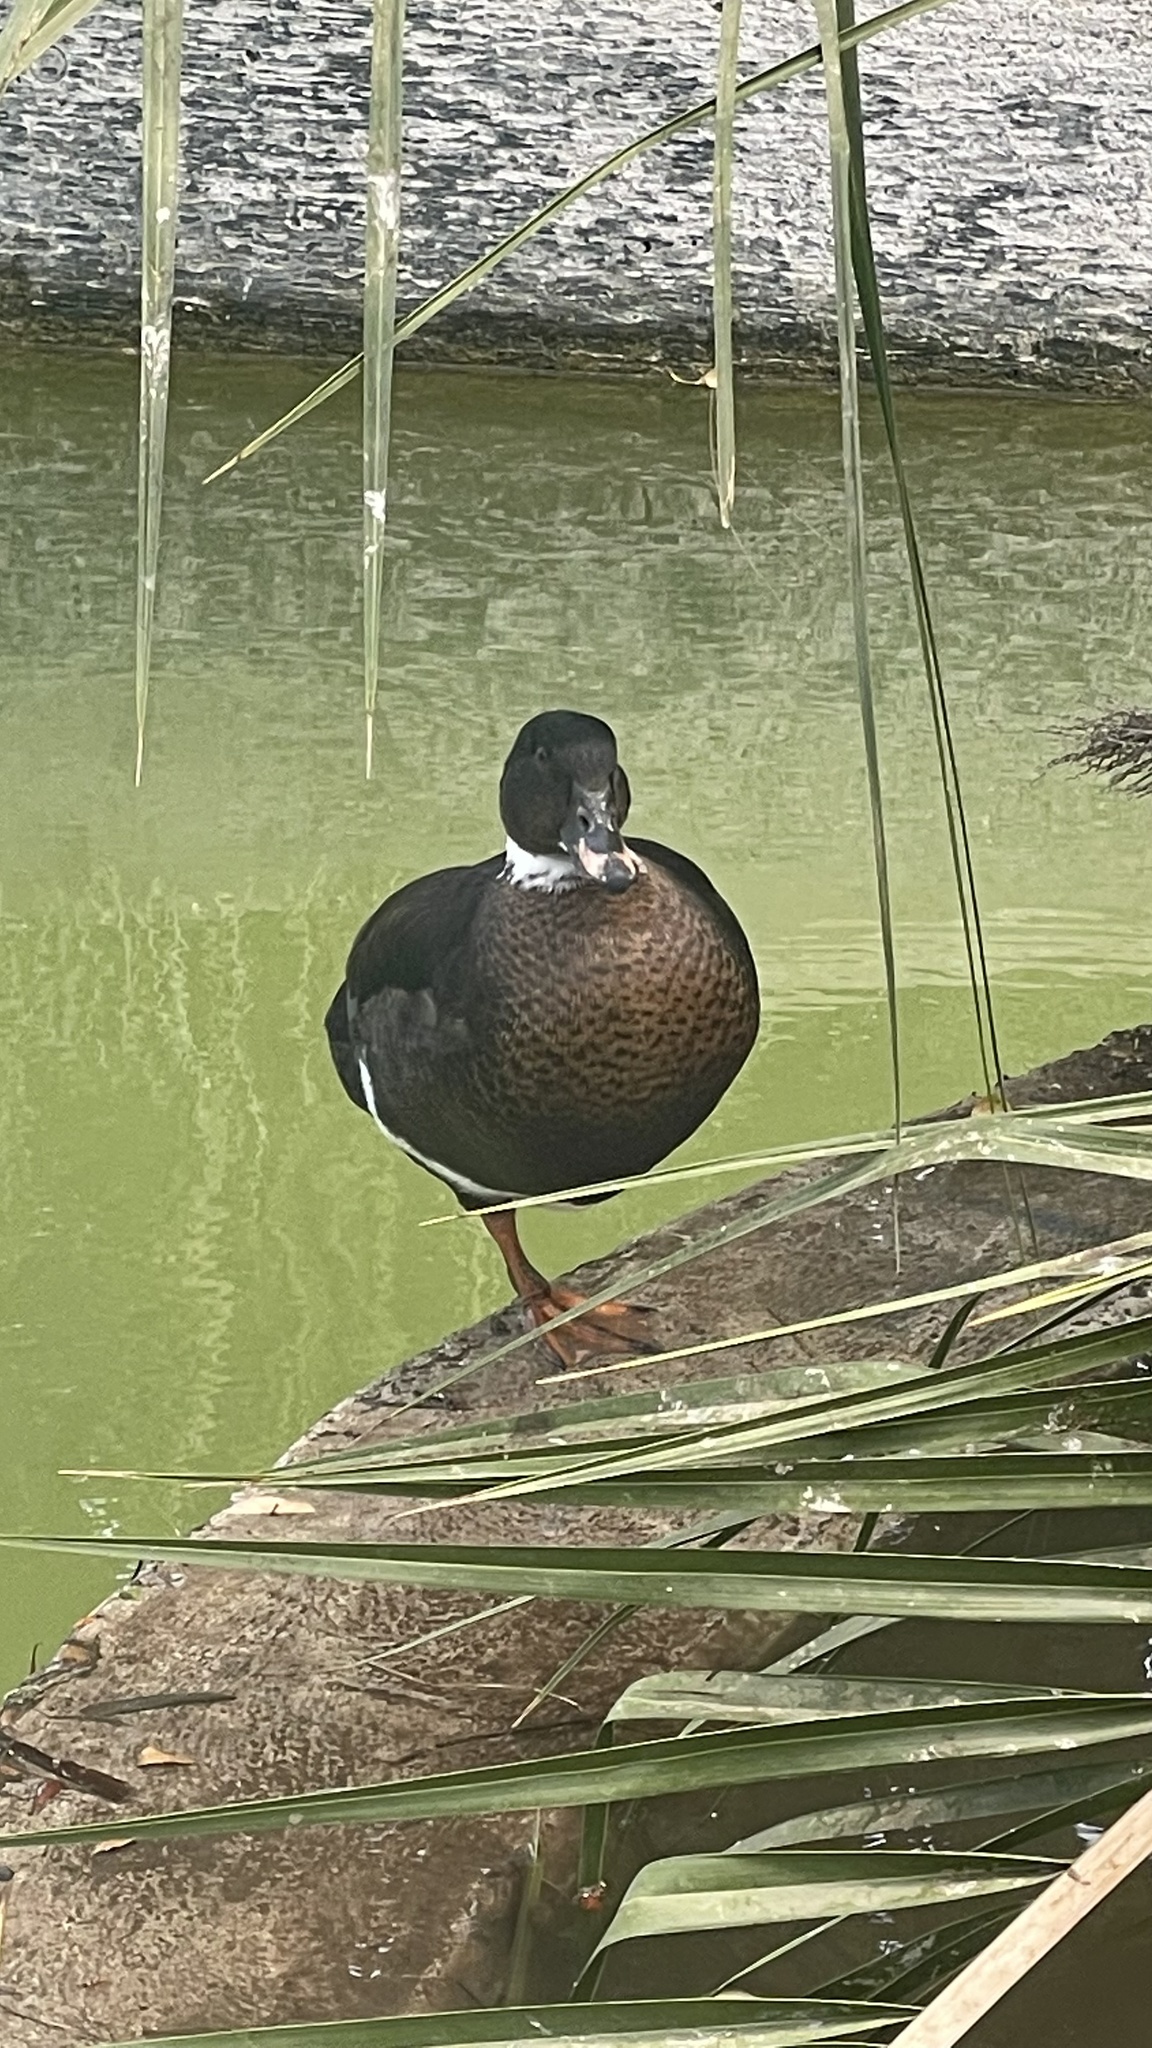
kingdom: Animalia
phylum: Chordata
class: Aves
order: Anseriformes
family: Anatidae
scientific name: Anatidae
